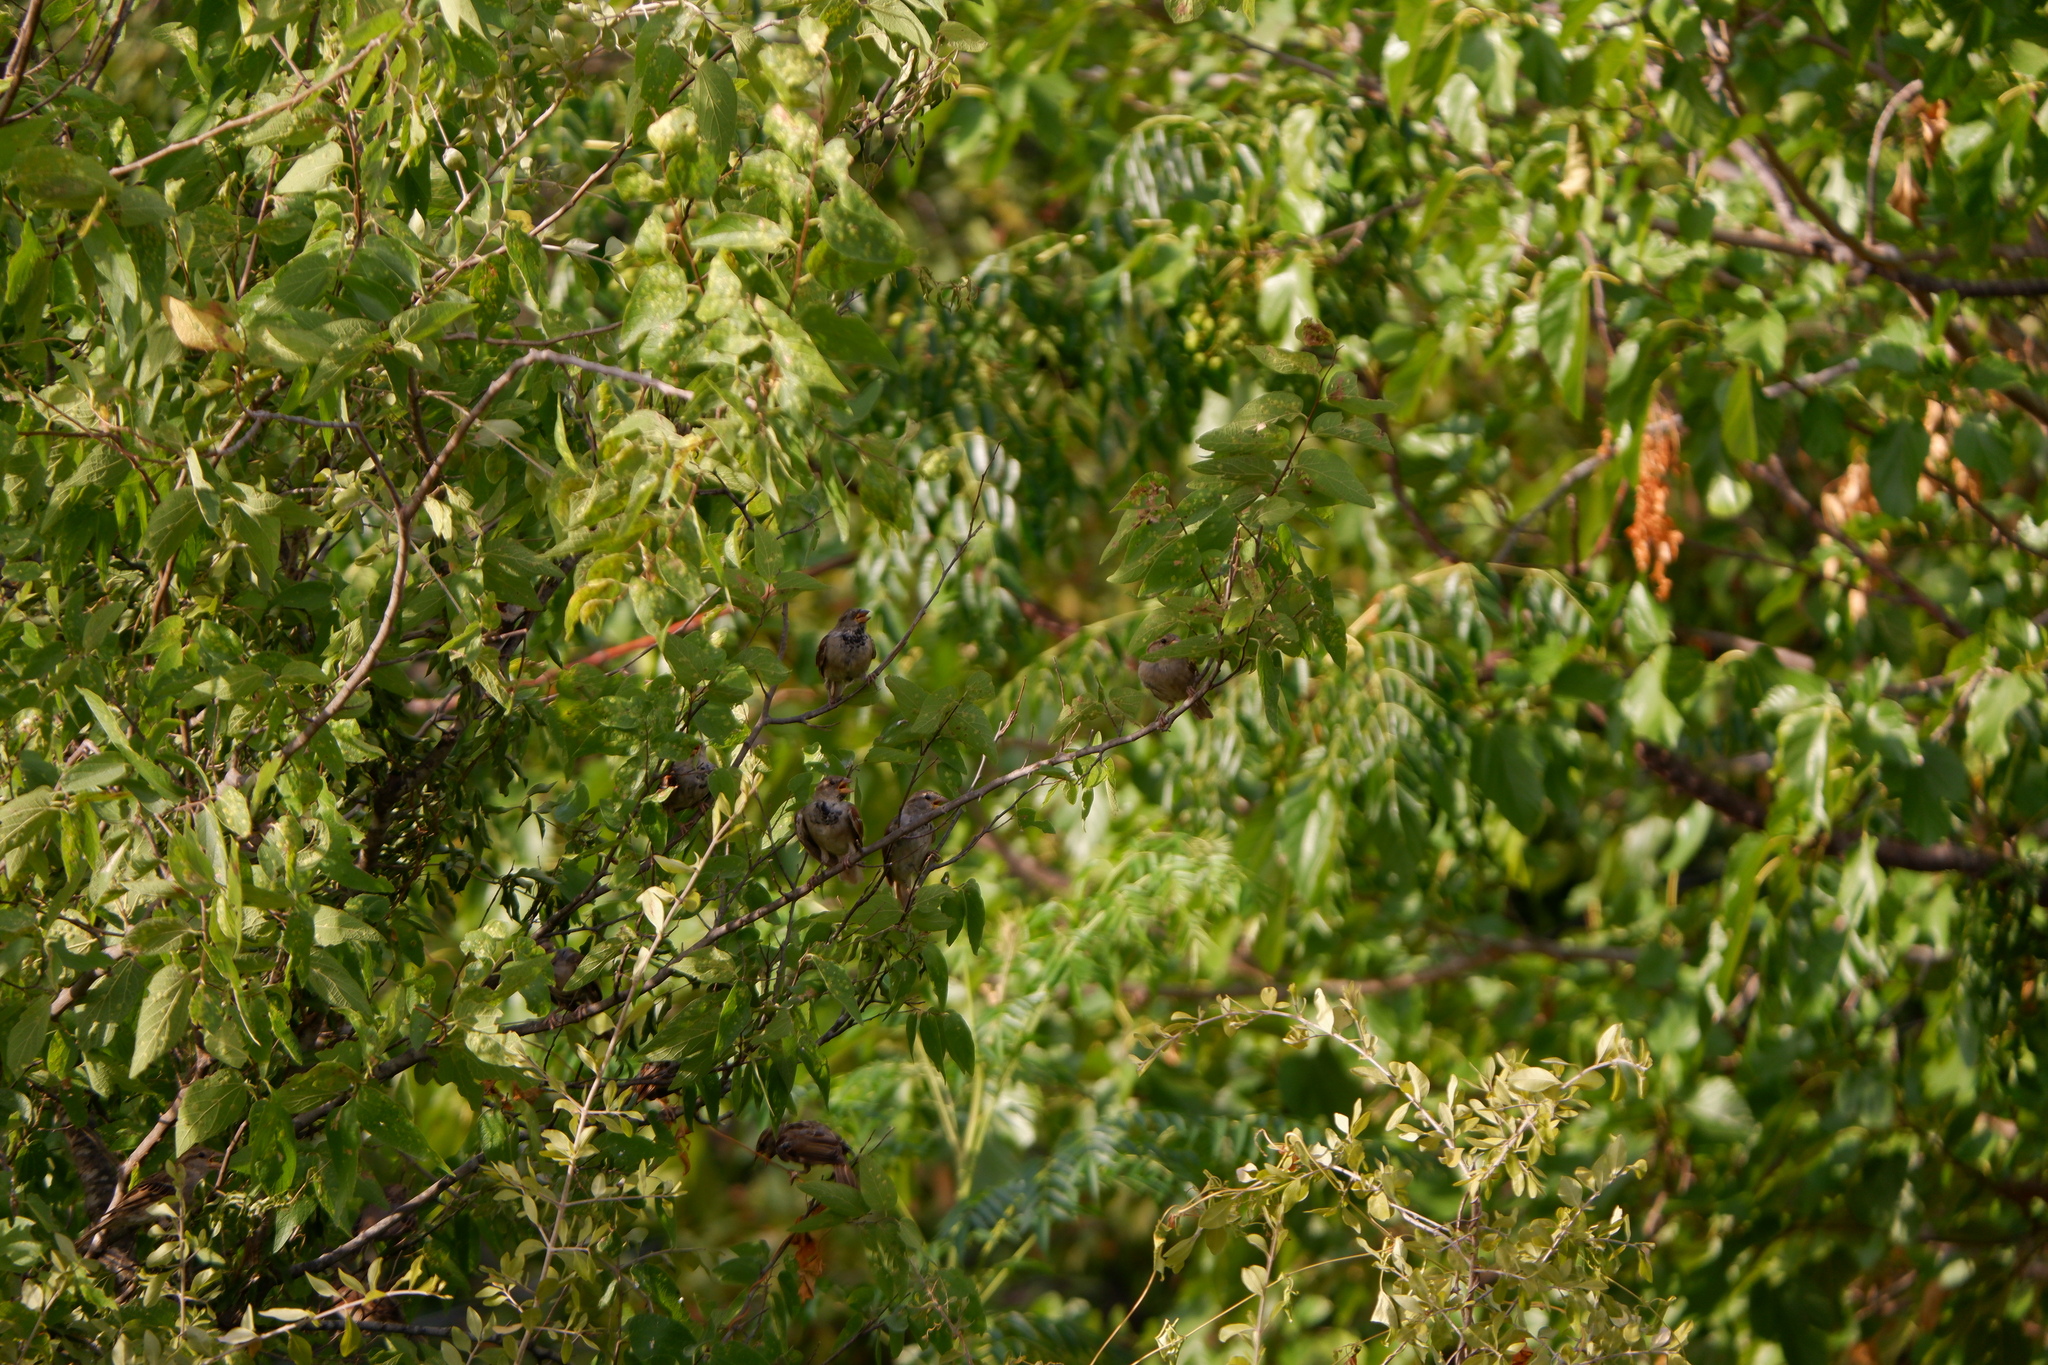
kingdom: Animalia
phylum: Chordata
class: Aves
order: Passeriformes
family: Passeridae
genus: Passer
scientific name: Passer domesticus
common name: House sparrow
